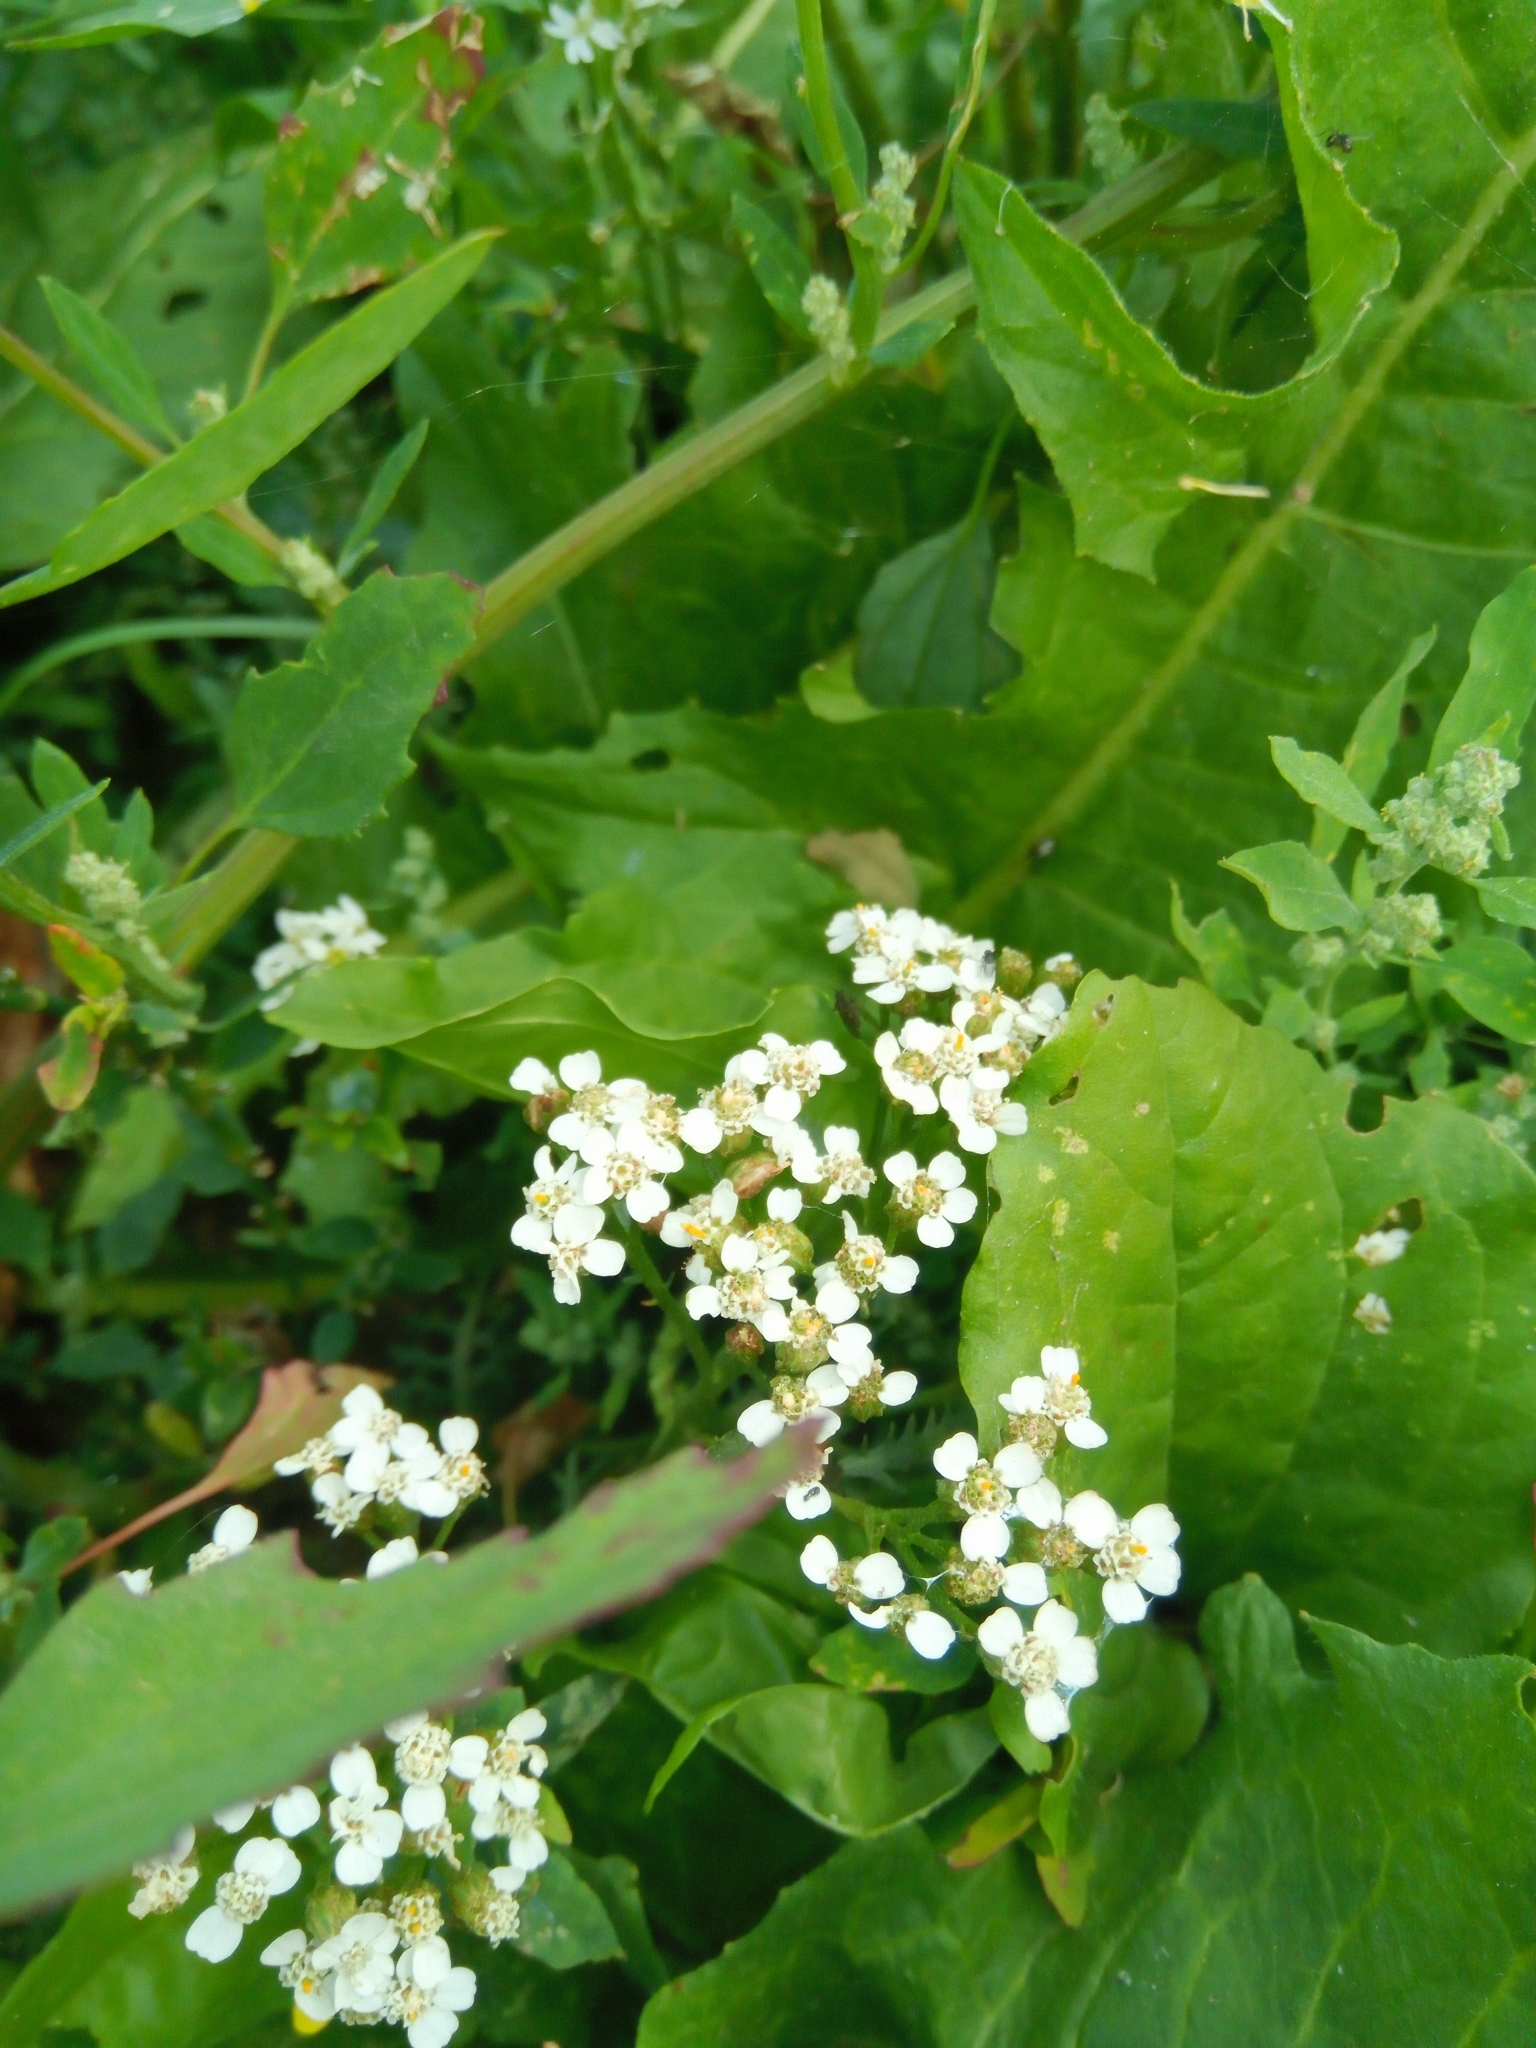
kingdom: Plantae
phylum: Tracheophyta
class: Magnoliopsida
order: Asterales
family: Asteraceae
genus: Achillea
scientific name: Achillea millefolium
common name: Yarrow
